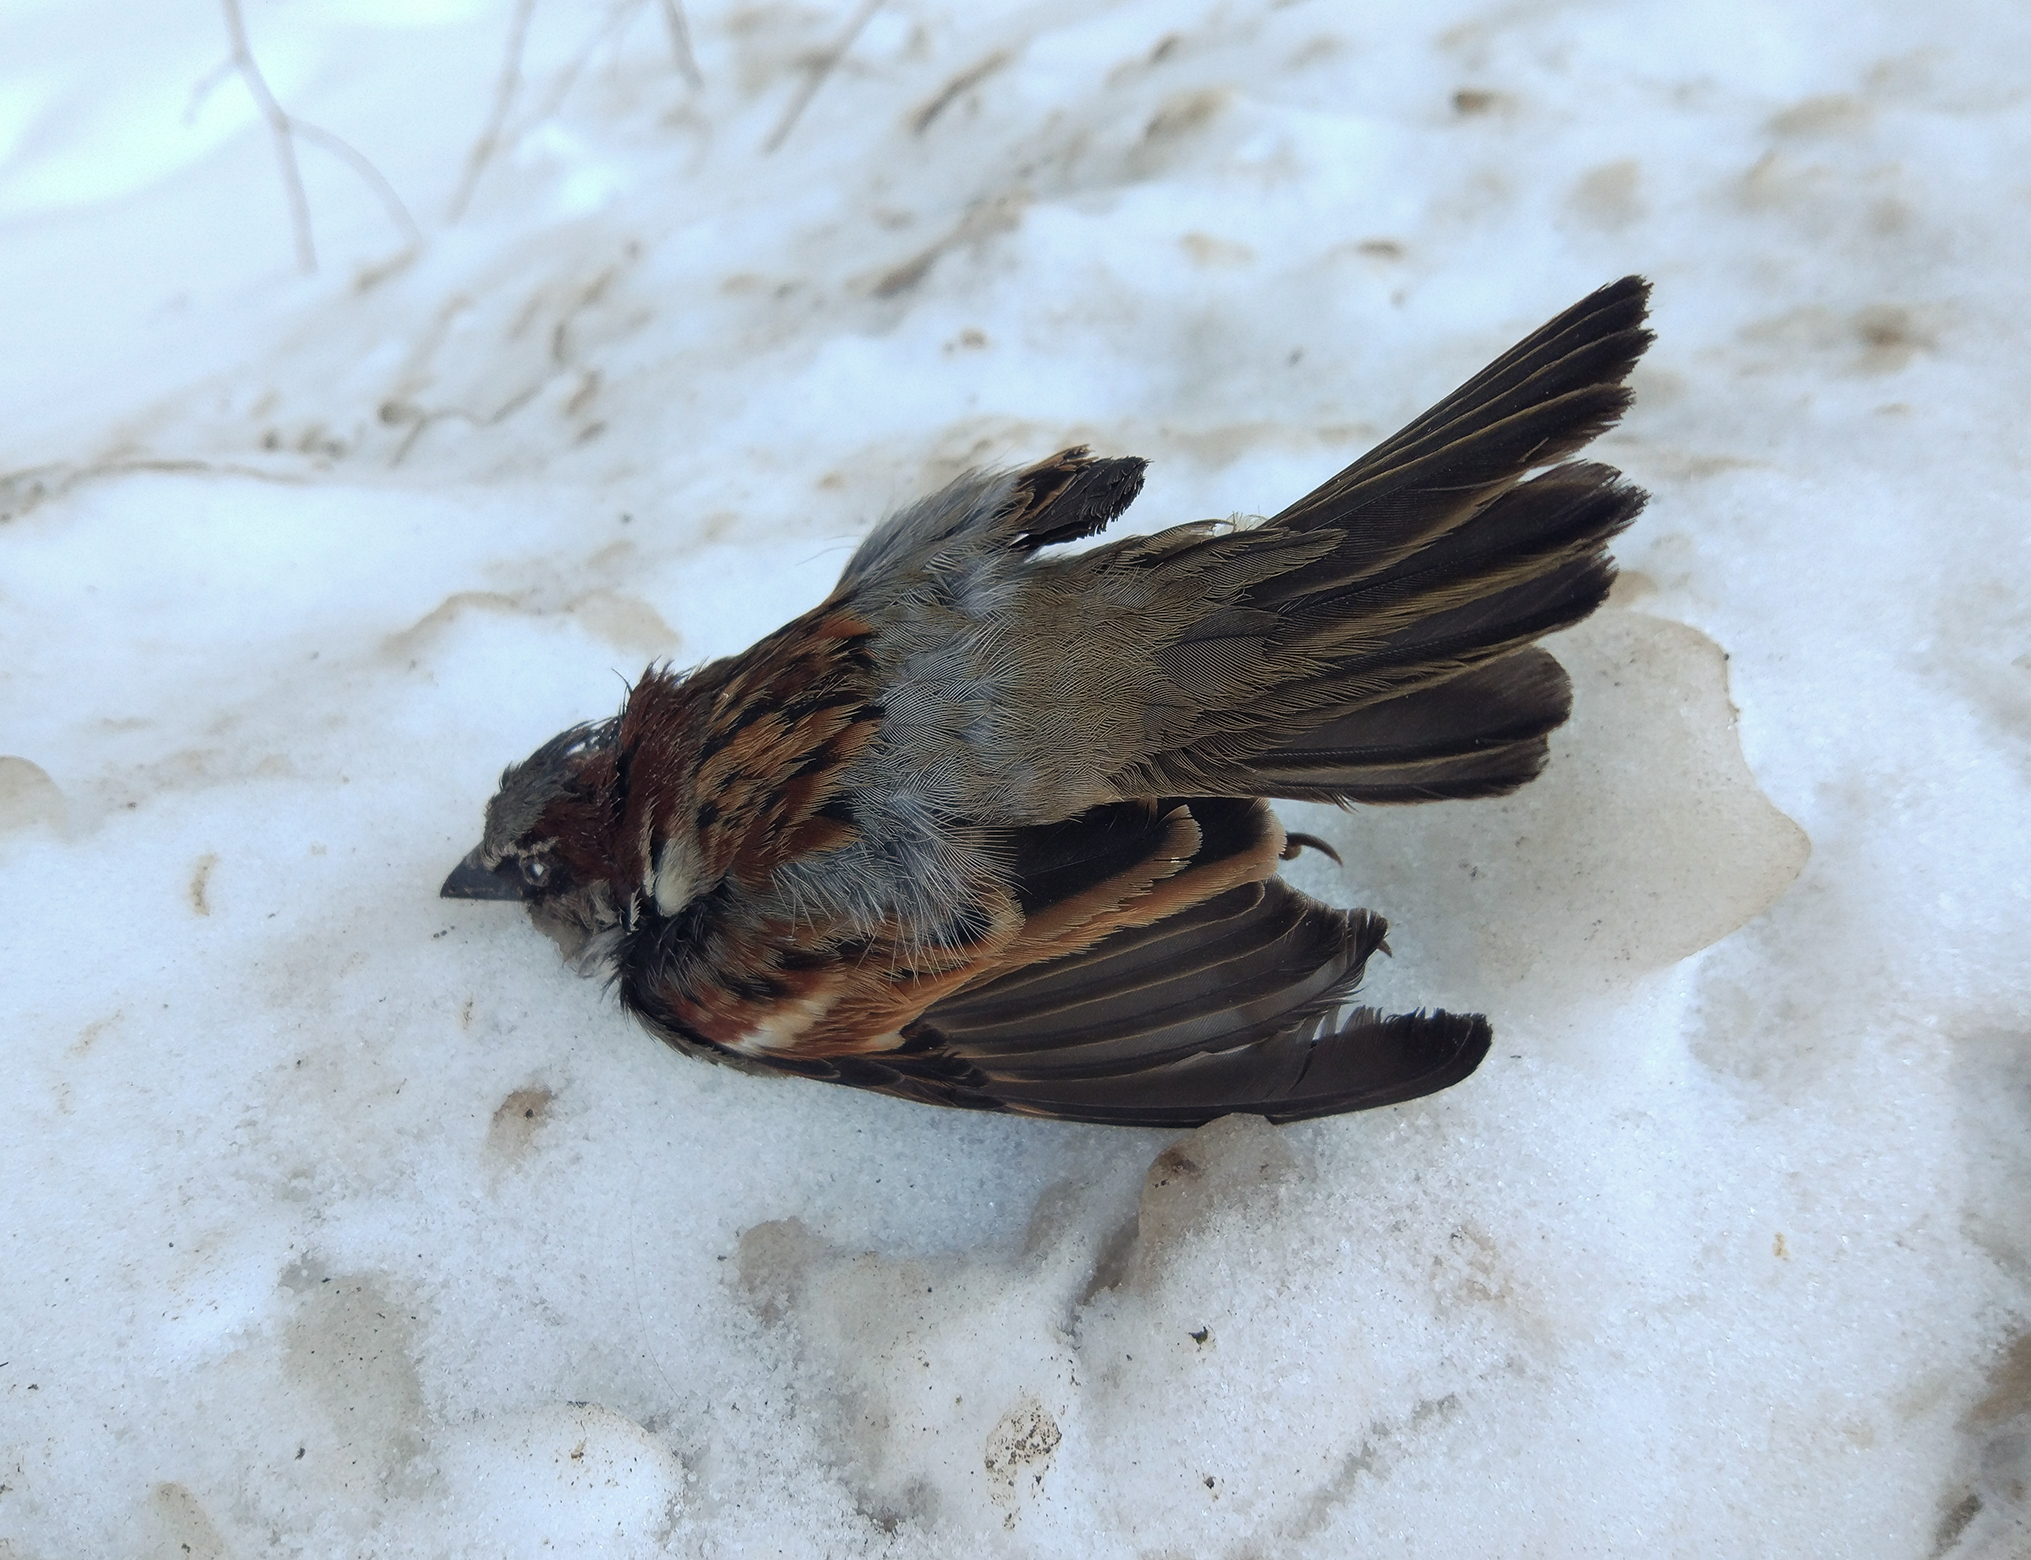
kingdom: Animalia
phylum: Chordata
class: Aves
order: Passeriformes
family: Passeridae
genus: Passer
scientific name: Passer domesticus
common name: House sparrow
